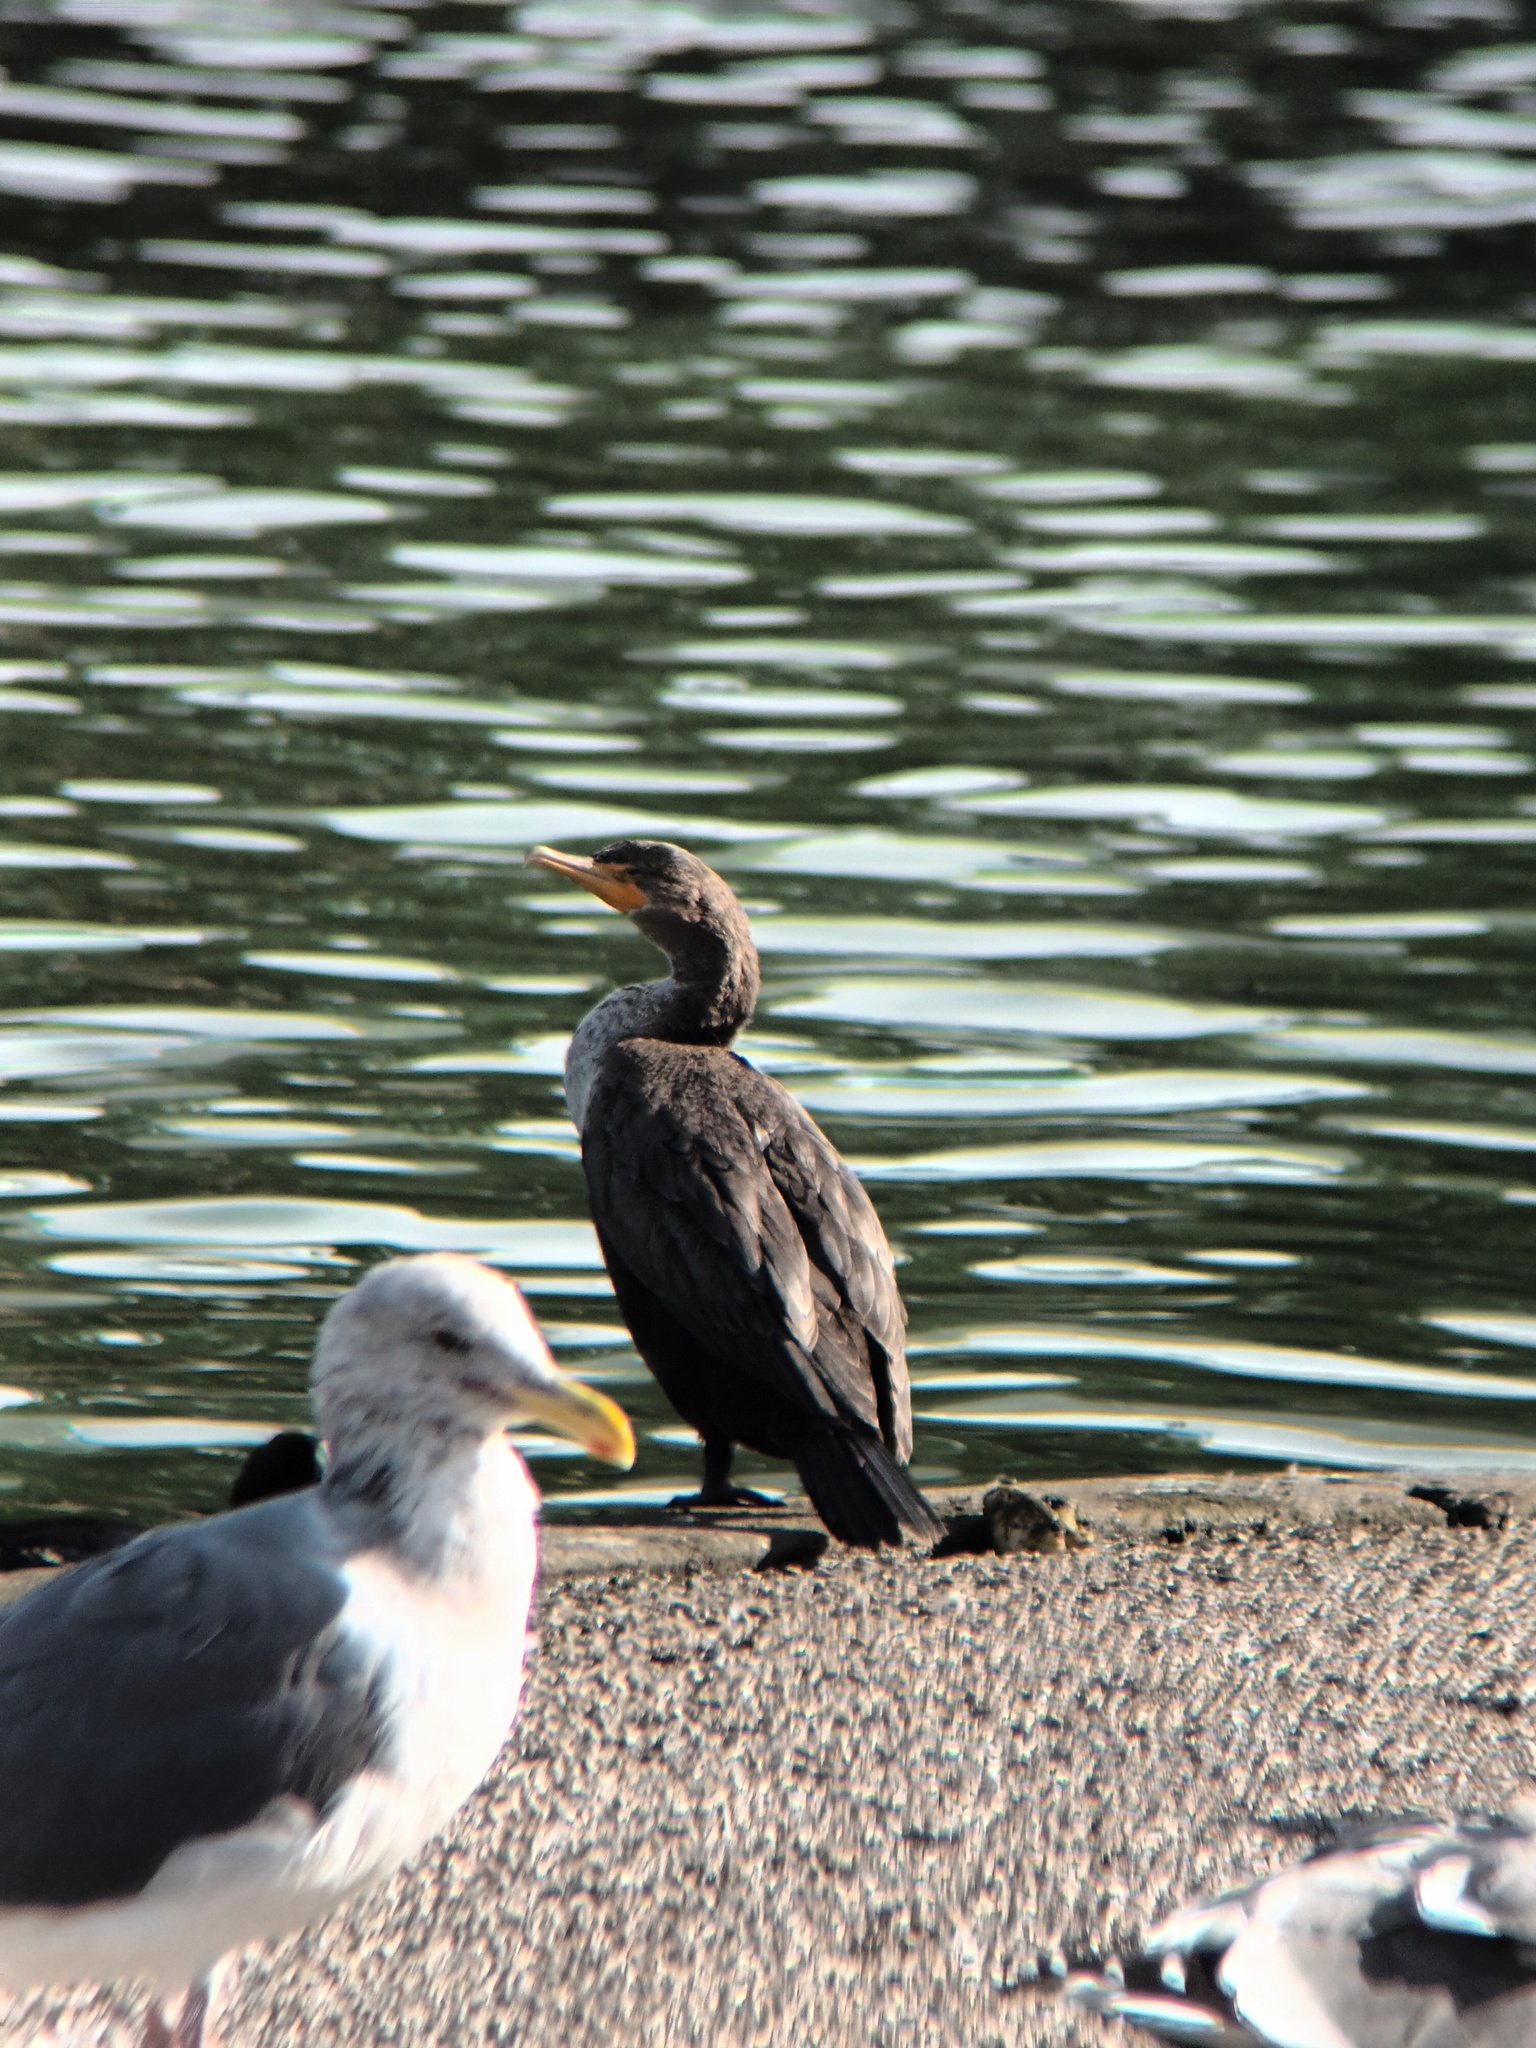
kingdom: Animalia
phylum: Chordata
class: Aves
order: Suliformes
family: Phalacrocoracidae
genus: Phalacrocorax
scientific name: Phalacrocorax auritus
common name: Double-crested cormorant
